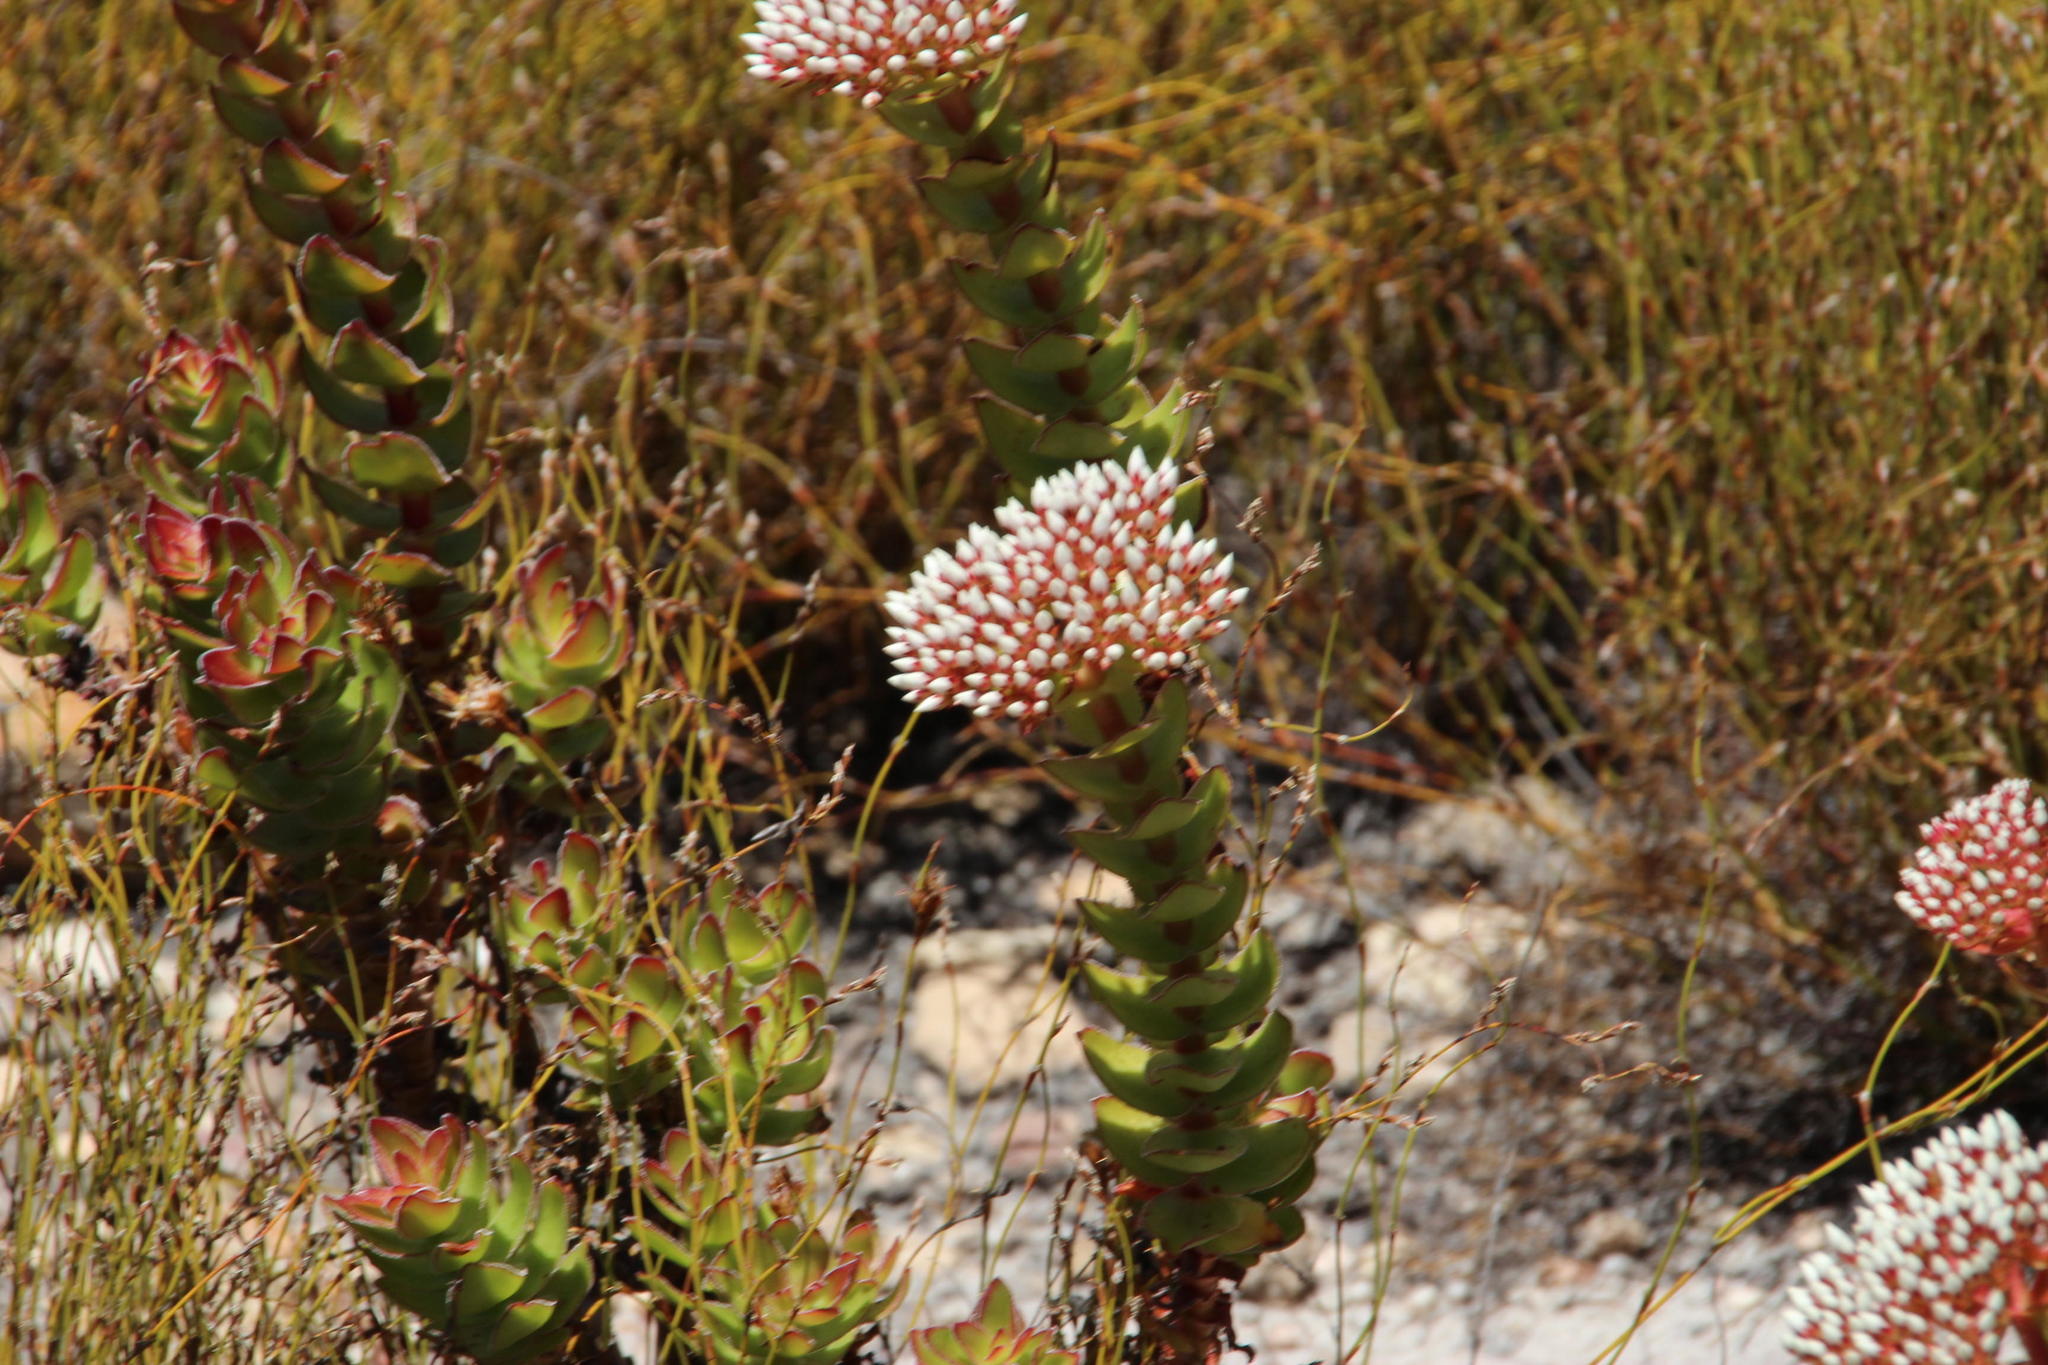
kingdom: Plantae
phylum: Tracheophyta
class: Magnoliopsida
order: Saxifragales
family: Crassulaceae
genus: Crassula
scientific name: Crassula undulata
